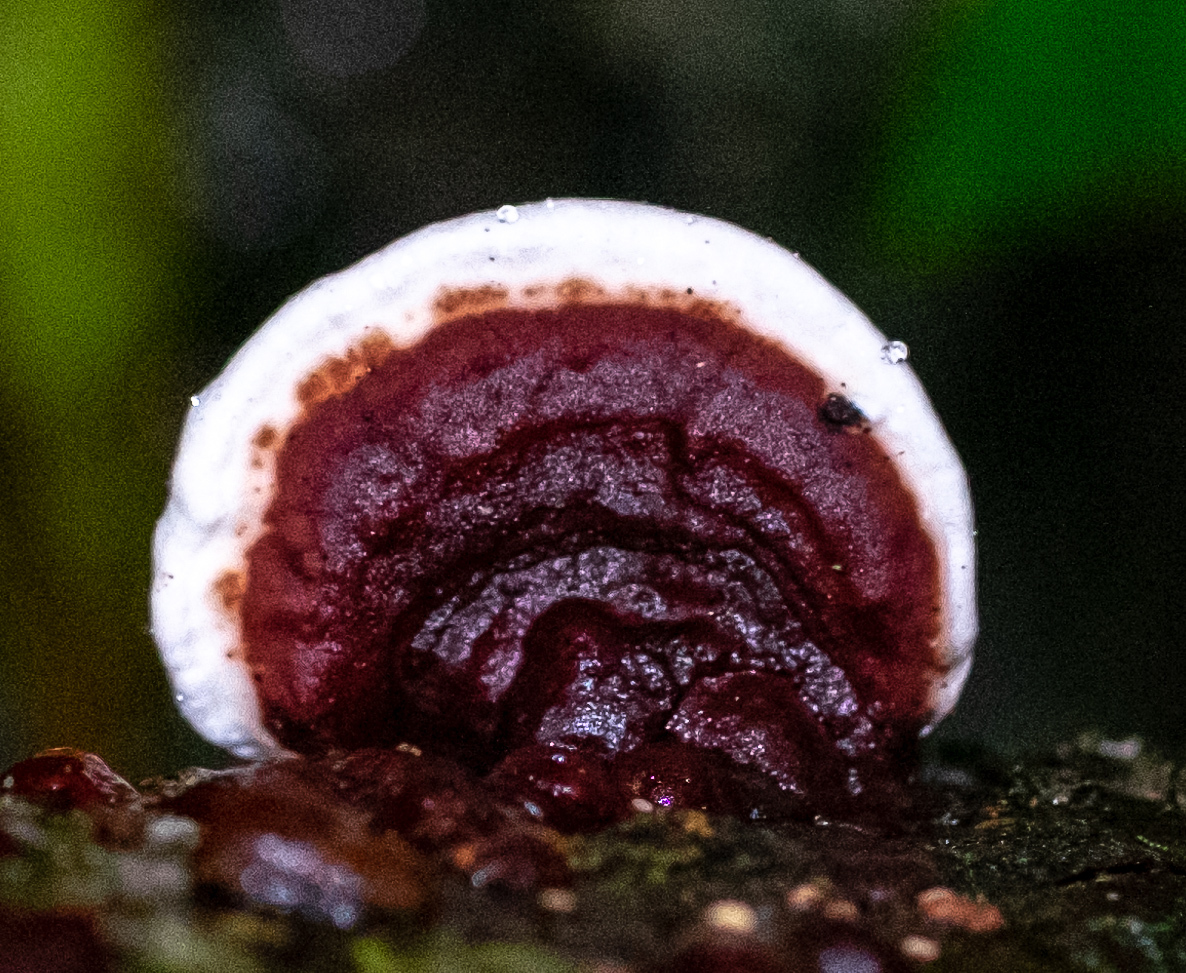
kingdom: Fungi
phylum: Basidiomycota
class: Agaricomycetes
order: Polyporales
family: Polyporaceae
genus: Earliella
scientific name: Earliella scabrosa
